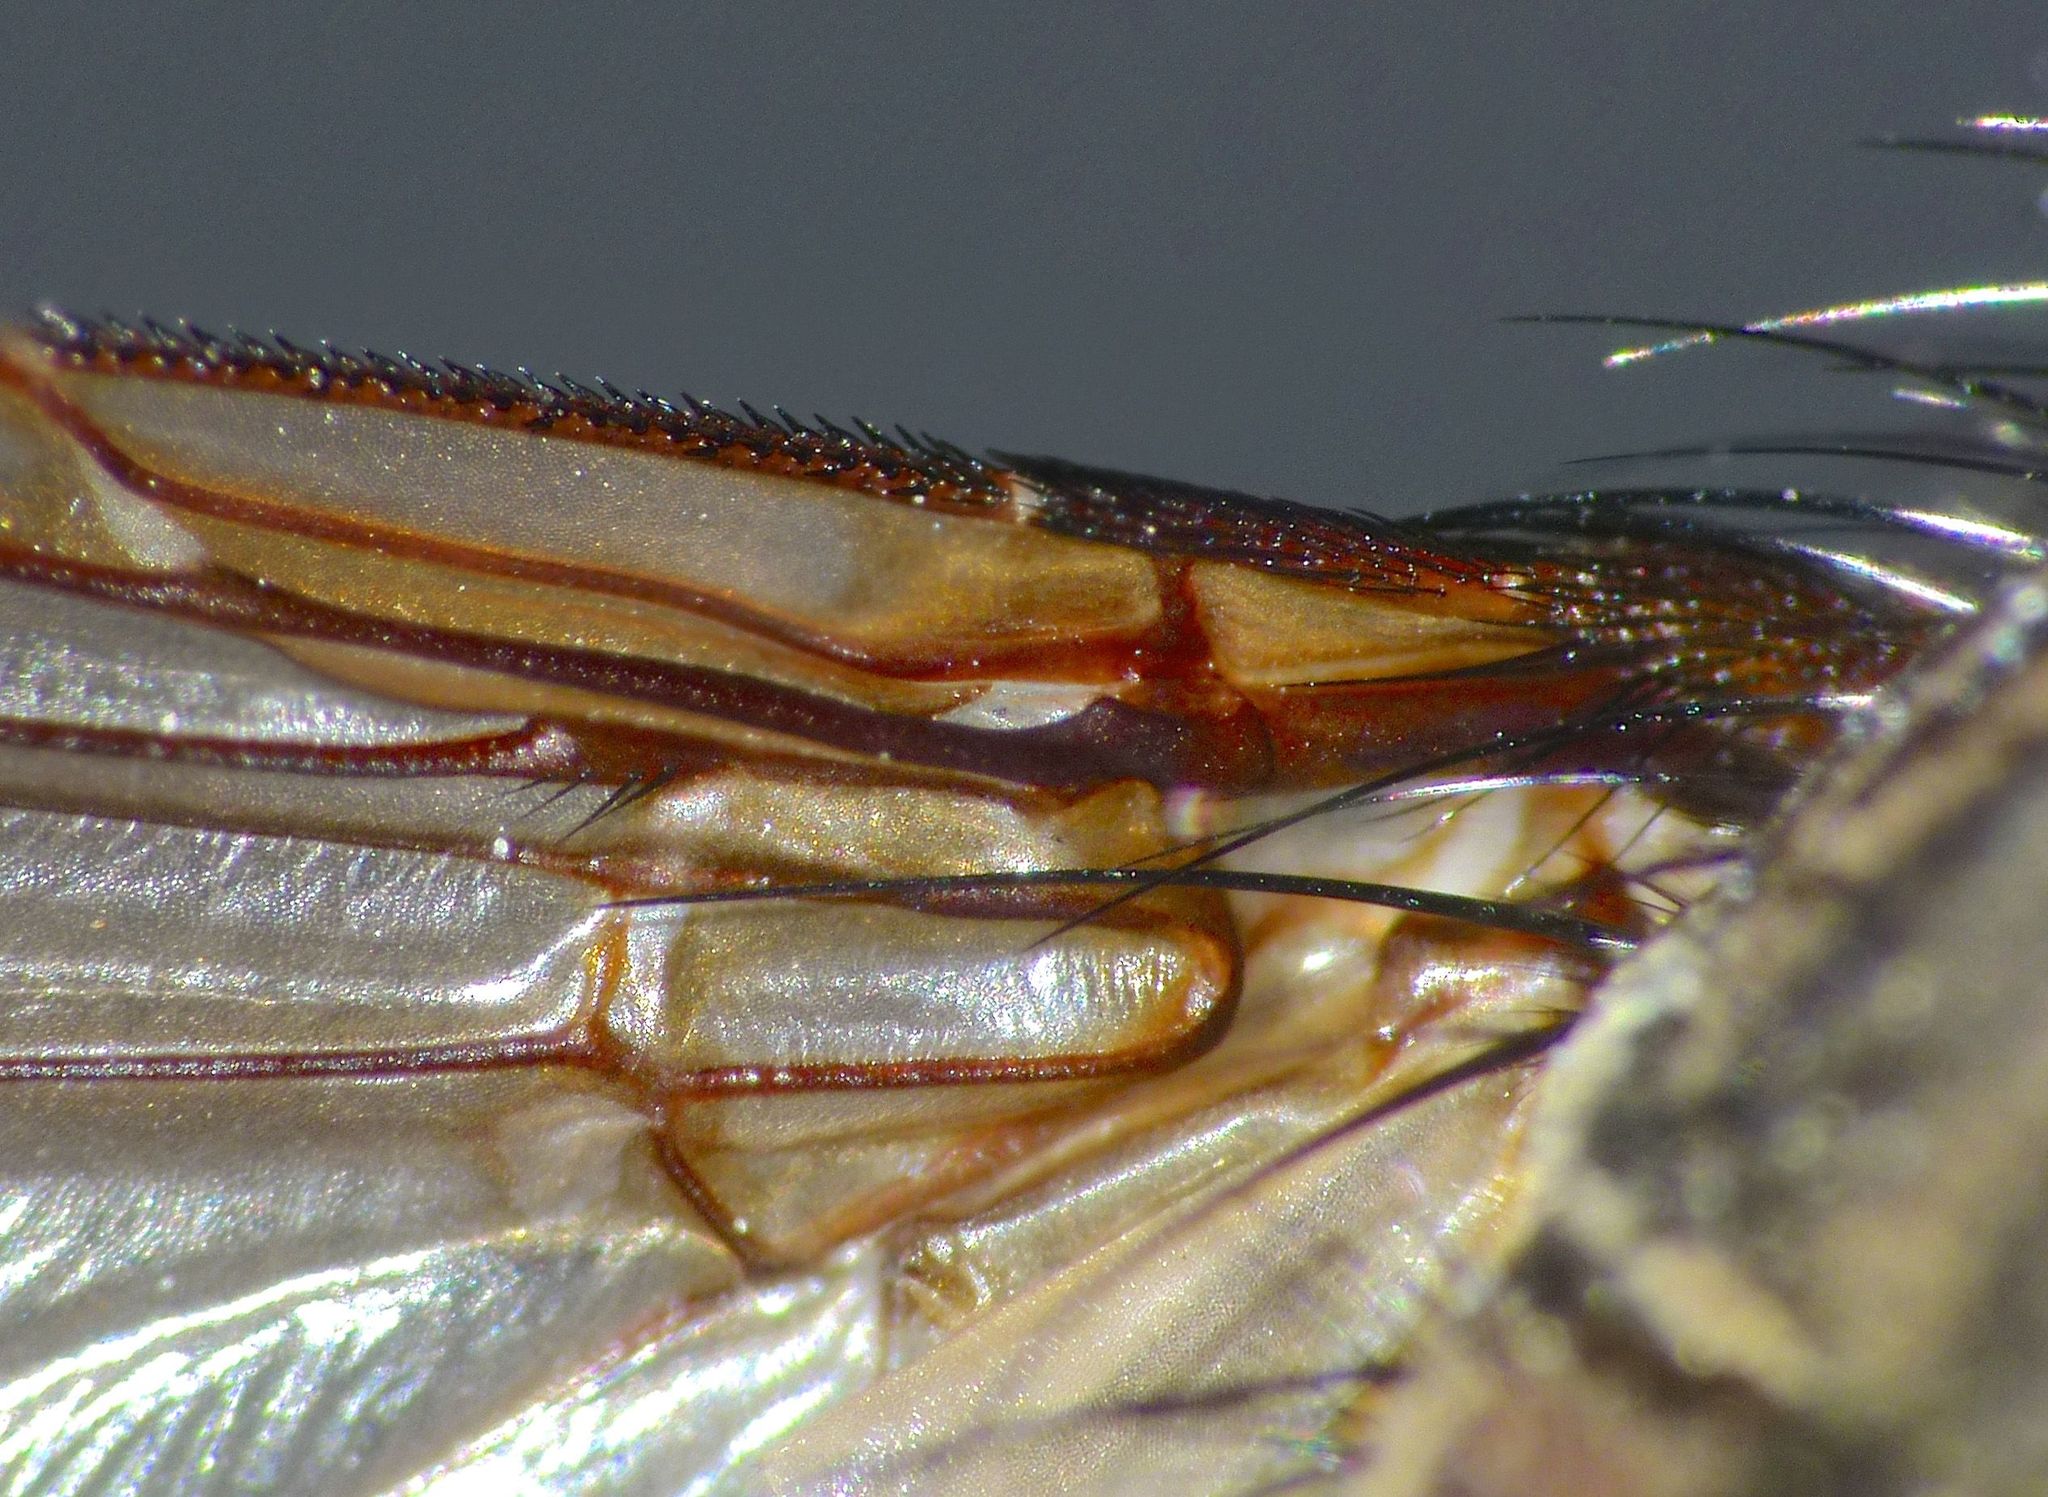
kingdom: Animalia
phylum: Arthropoda
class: Insecta
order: Diptera
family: Tachinidae
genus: Bothrophora
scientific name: Bothrophora lupina
